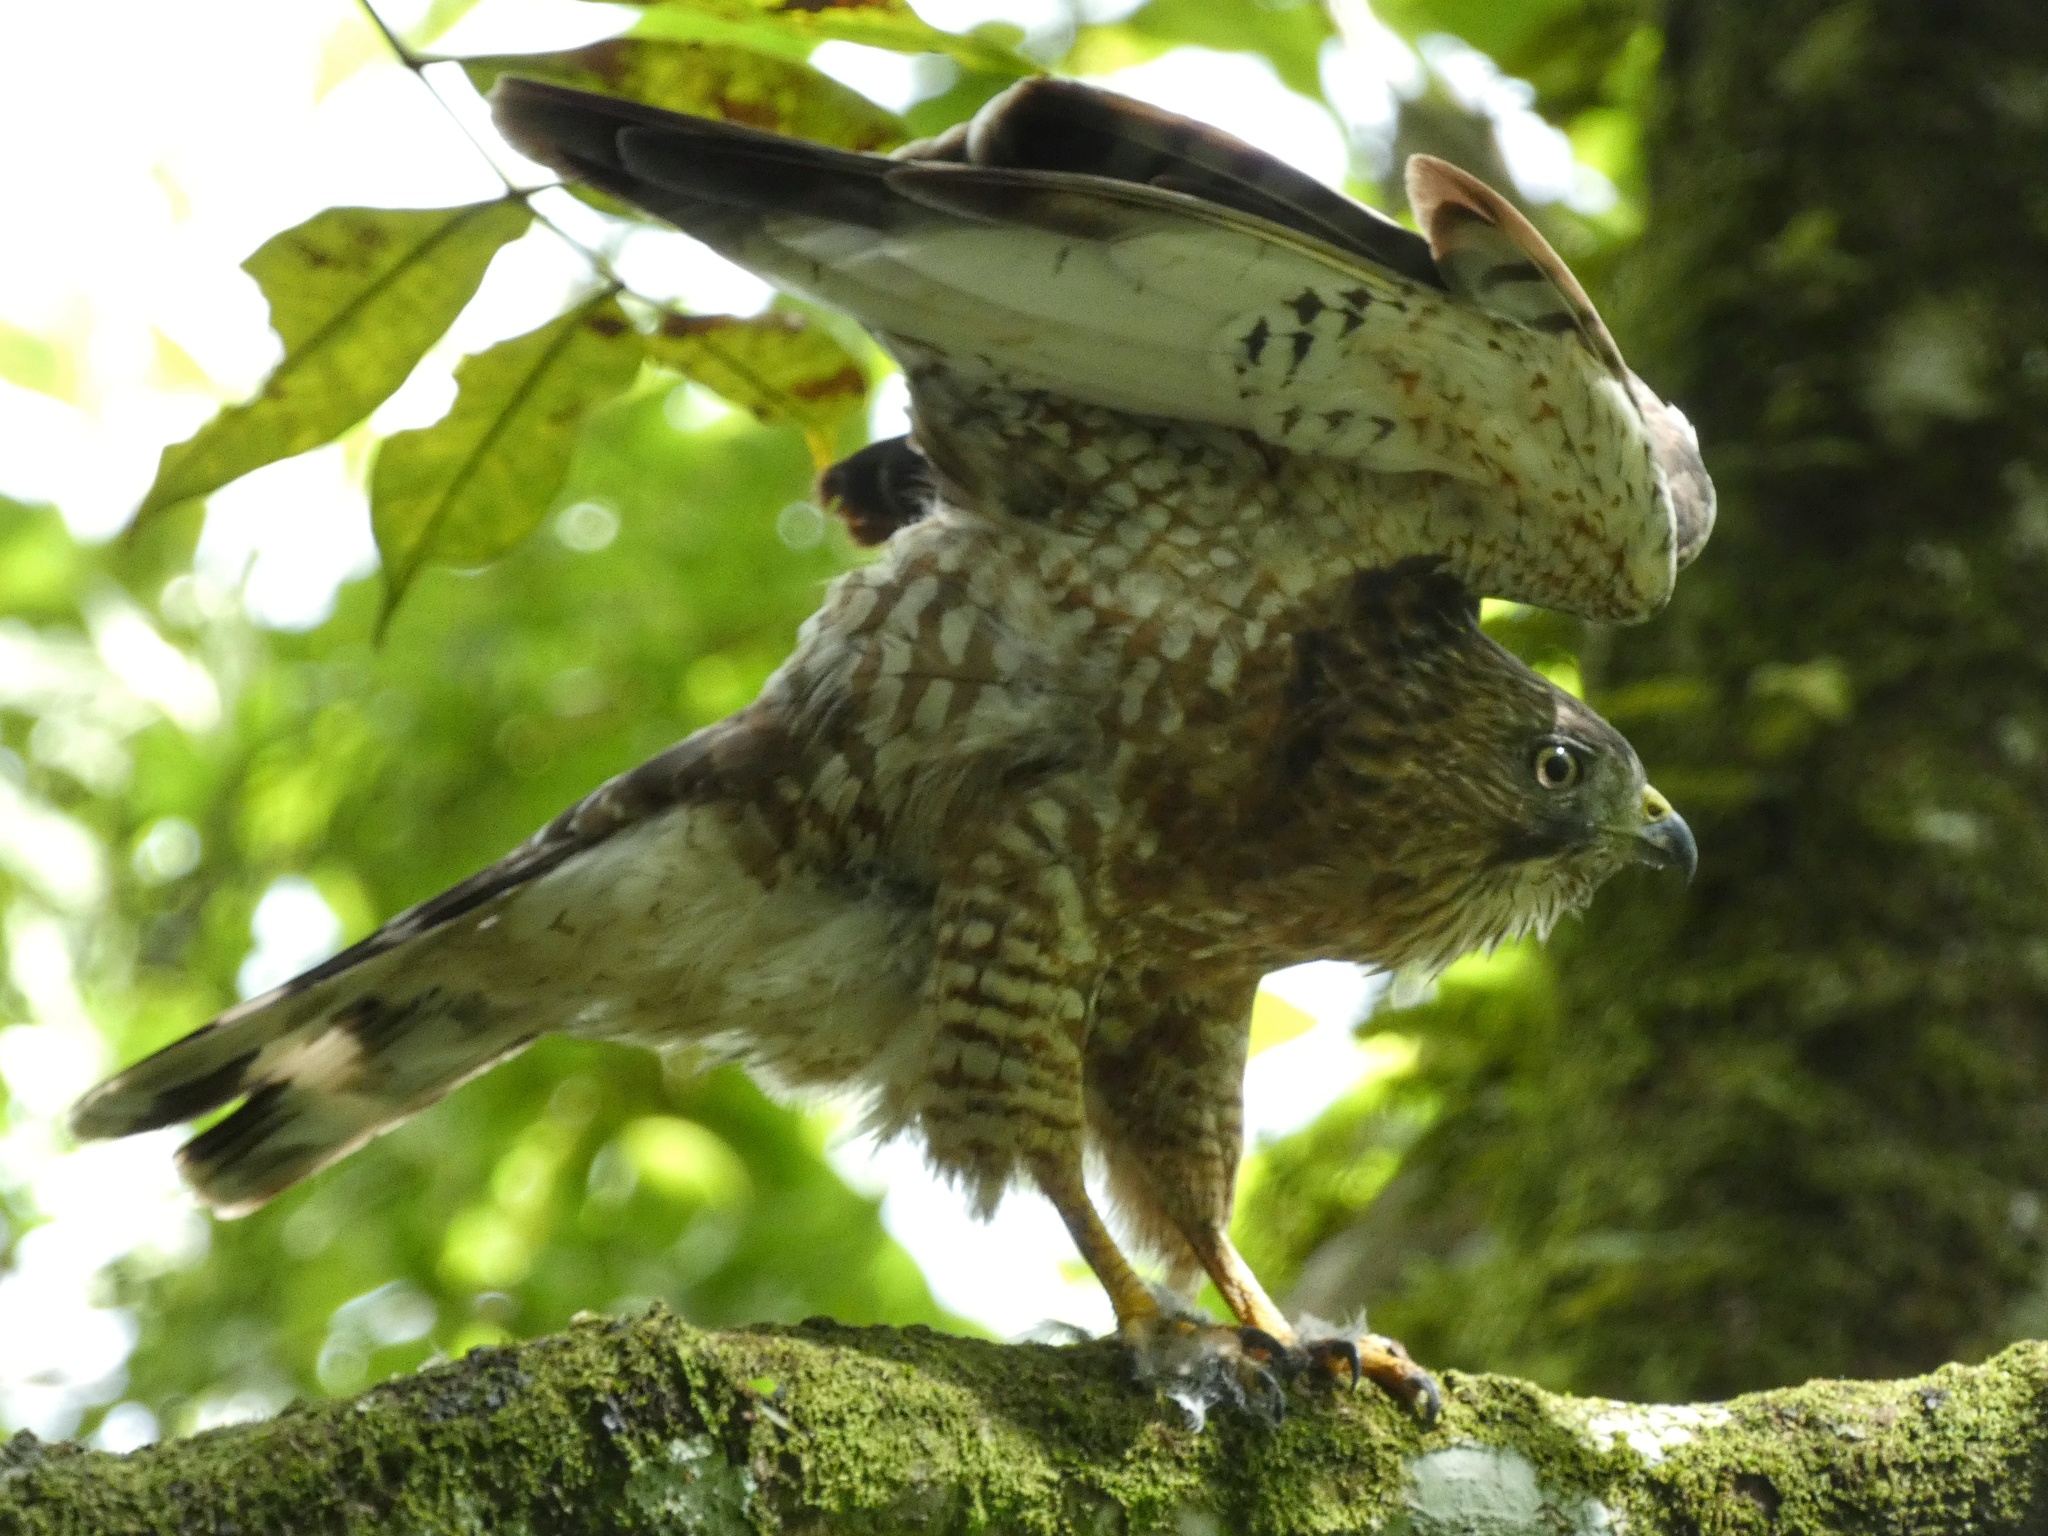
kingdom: Animalia
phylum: Chordata
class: Aves
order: Accipitriformes
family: Accipitridae
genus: Buteo
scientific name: Buteo platypterus
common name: Broad-winged hawk
